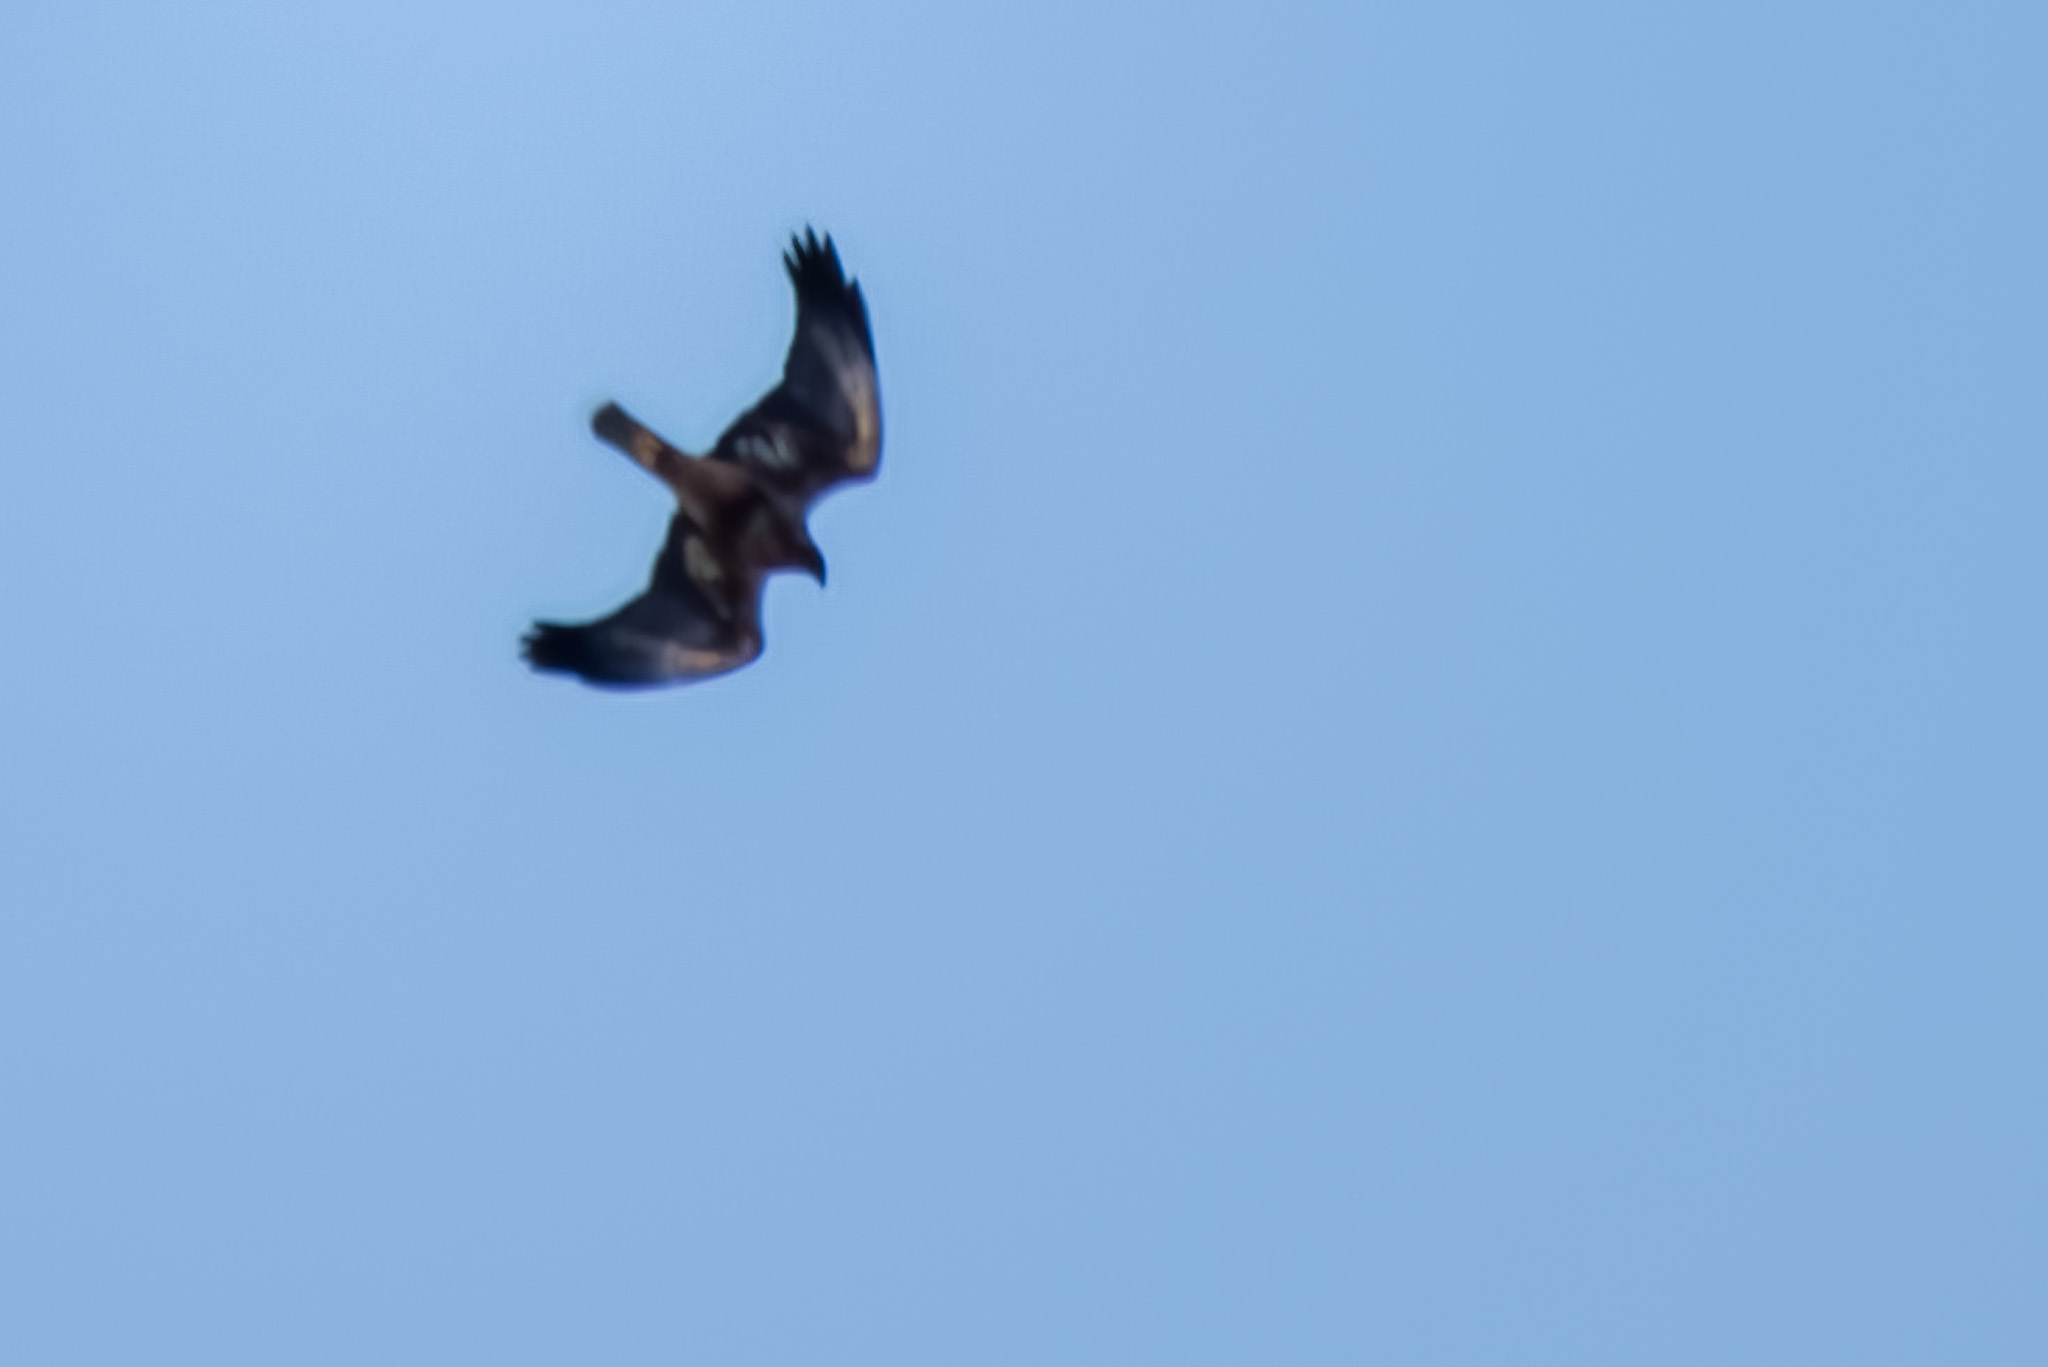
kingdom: Animalia
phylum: Chordata
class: Aves
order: Accipitriformes
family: Accipitridae
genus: Circus
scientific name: Circus aeruginosus
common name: Western marsh harrier
